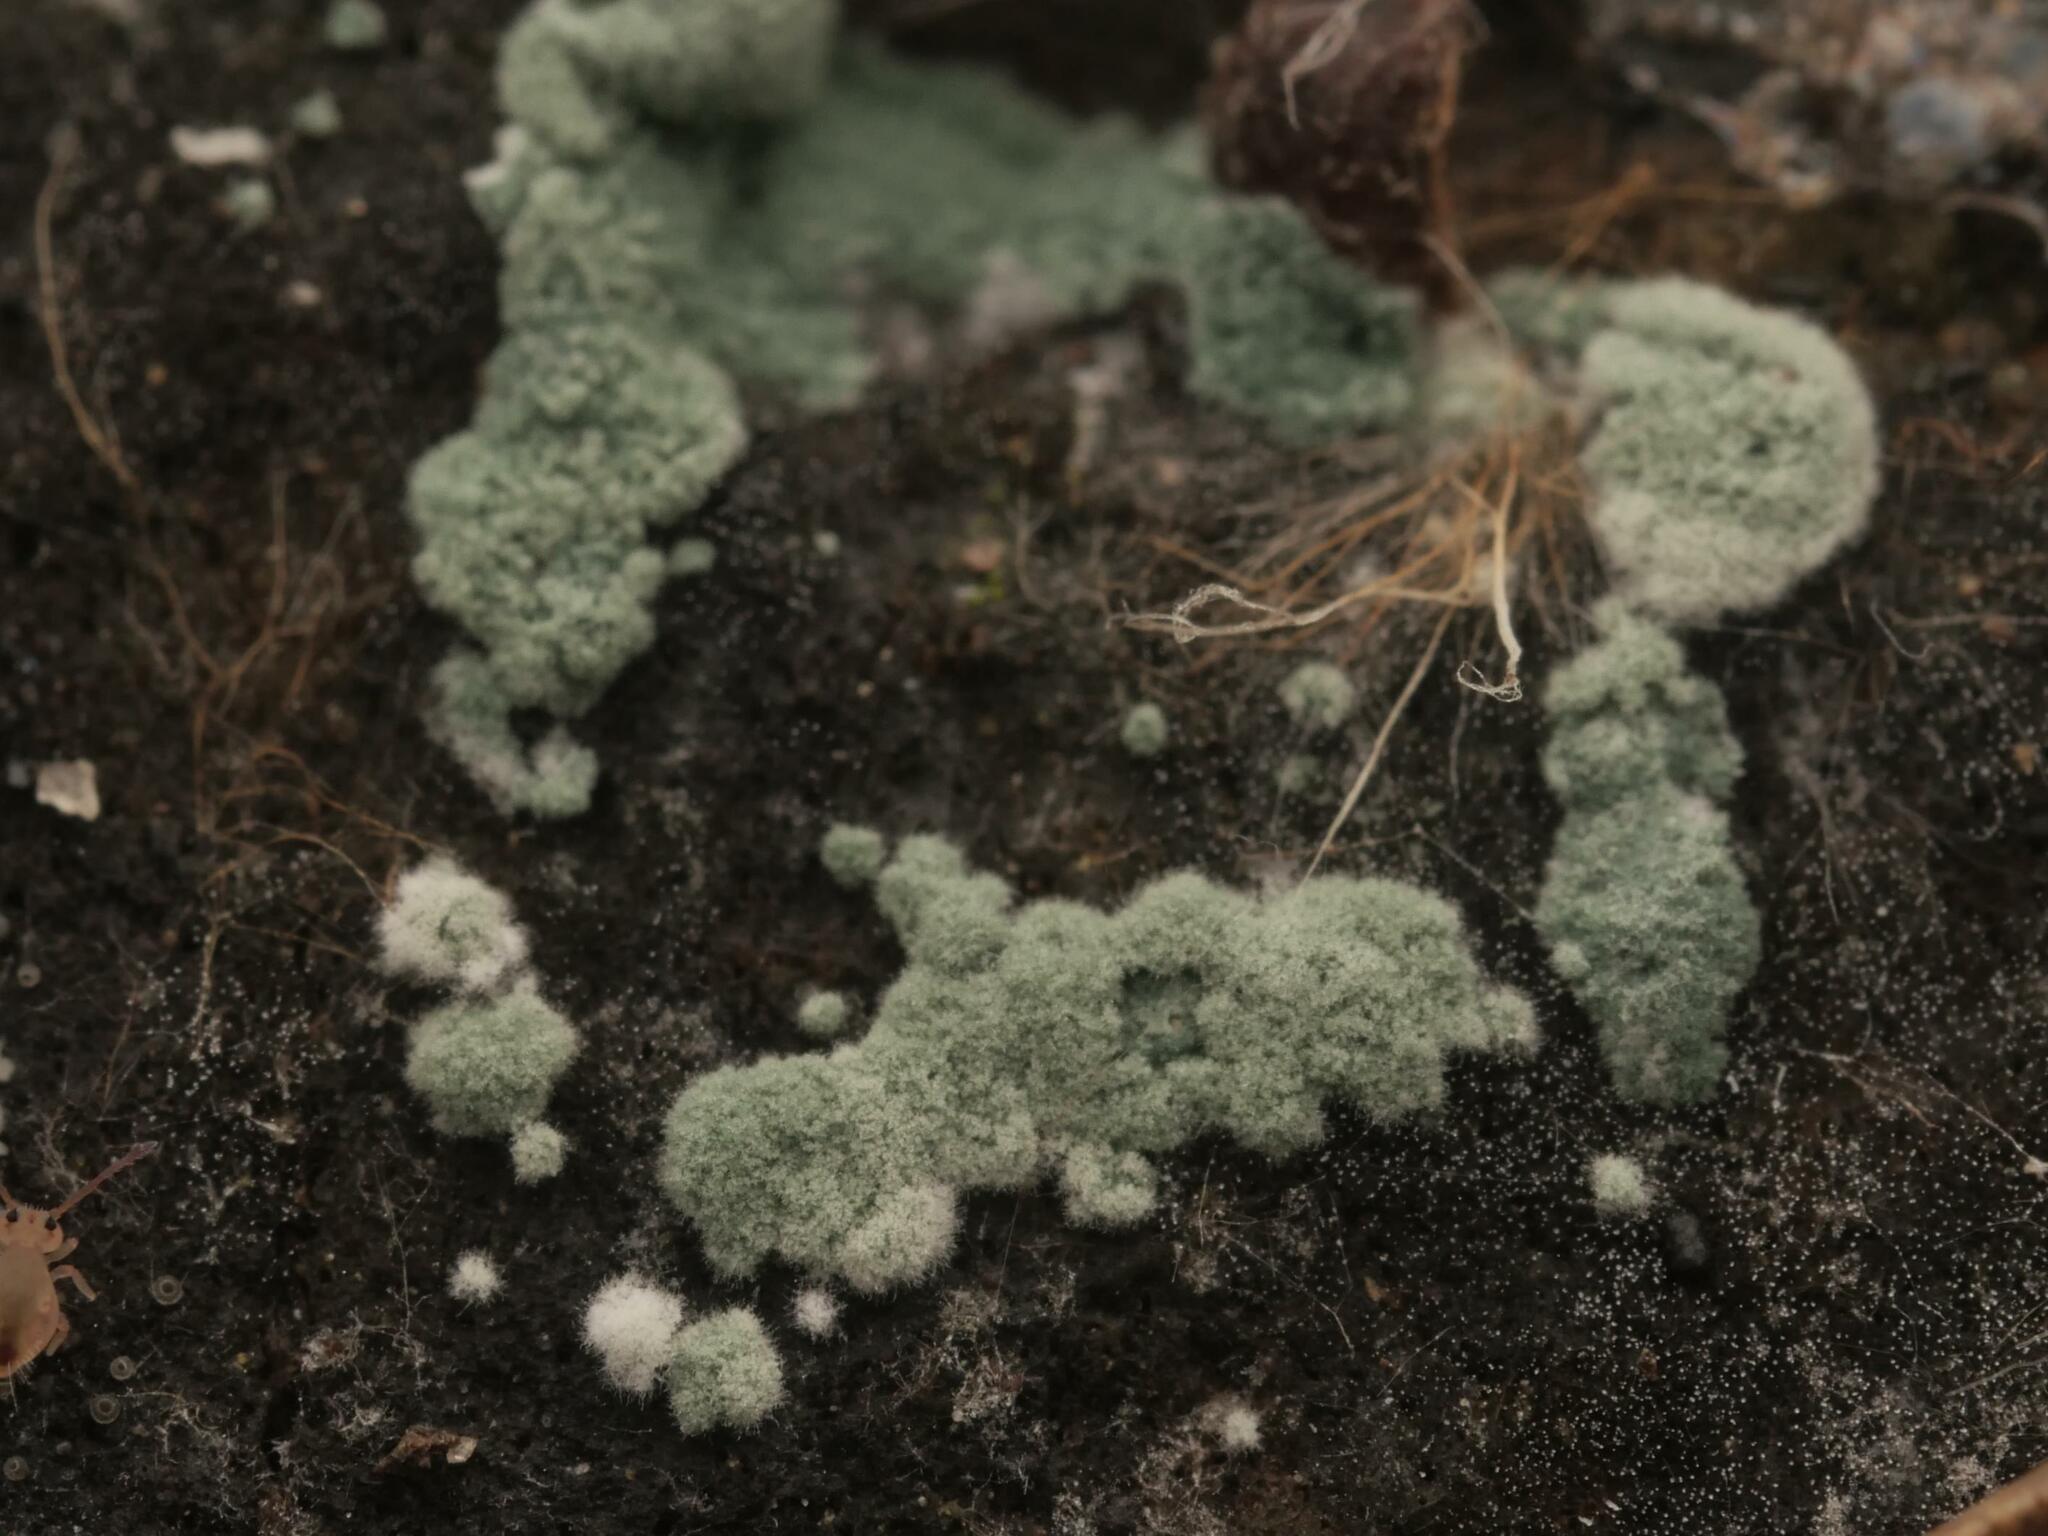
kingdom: Fungi
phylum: Ascomycota
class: Sordariomycetes
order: Hypocreales
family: Hypocreaceae
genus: Trichoderma
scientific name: Trichoderma viride
